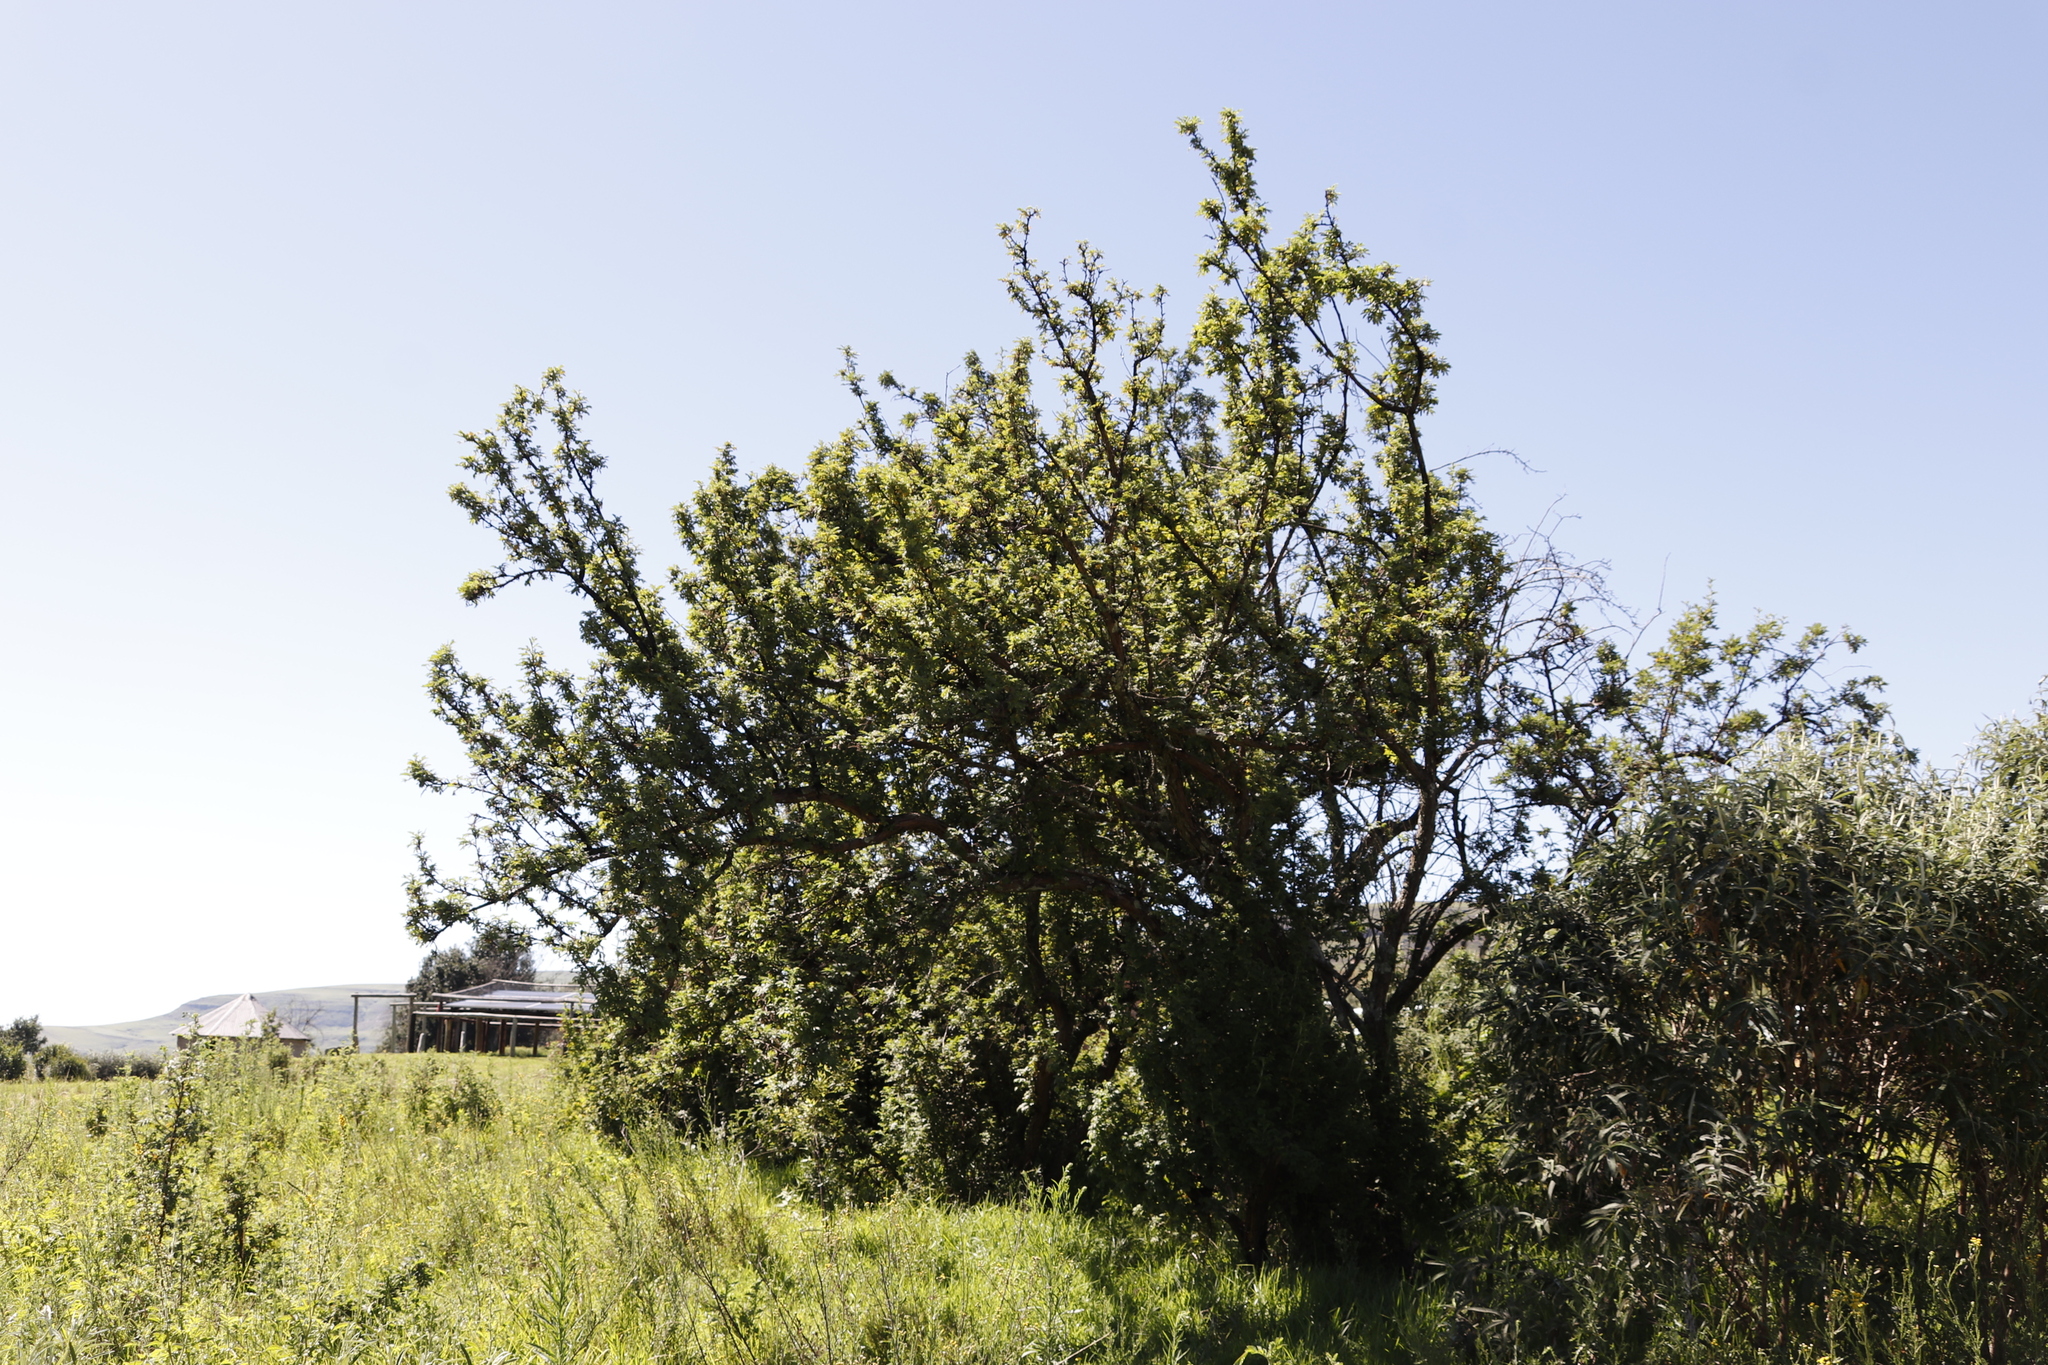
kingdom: Plantae
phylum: Tracheophyta
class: Magnoliopsida
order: Rosales
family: Rosaceae
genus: Leucosidea
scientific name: Leucosidea sericea
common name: Oldwood
